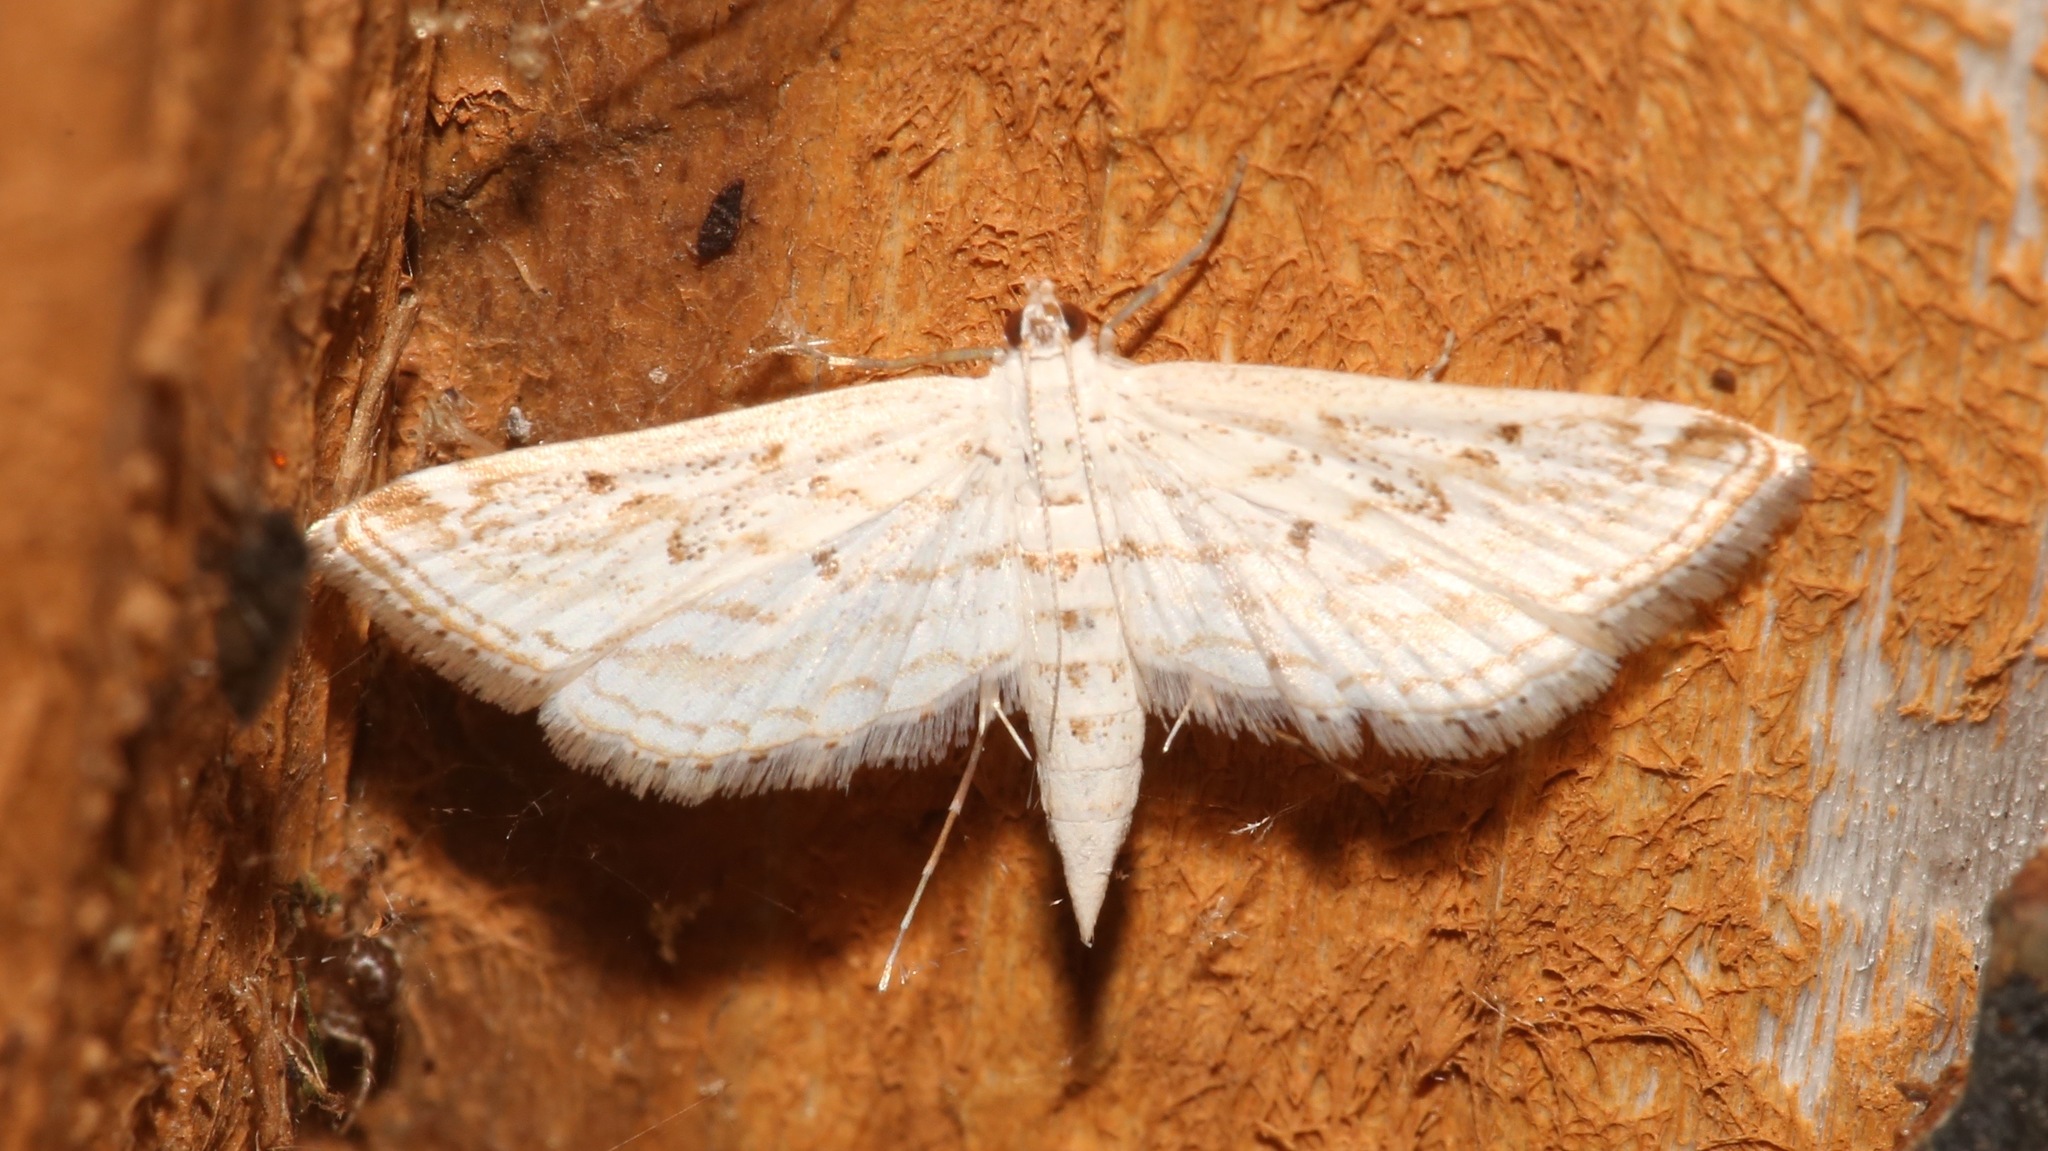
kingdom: Animalia
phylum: Arthropoda
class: Insecta
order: Lepidoptera
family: Crambidae
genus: Parapoynx
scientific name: Parapoynx allionealis
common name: Bladderwort casemaker
